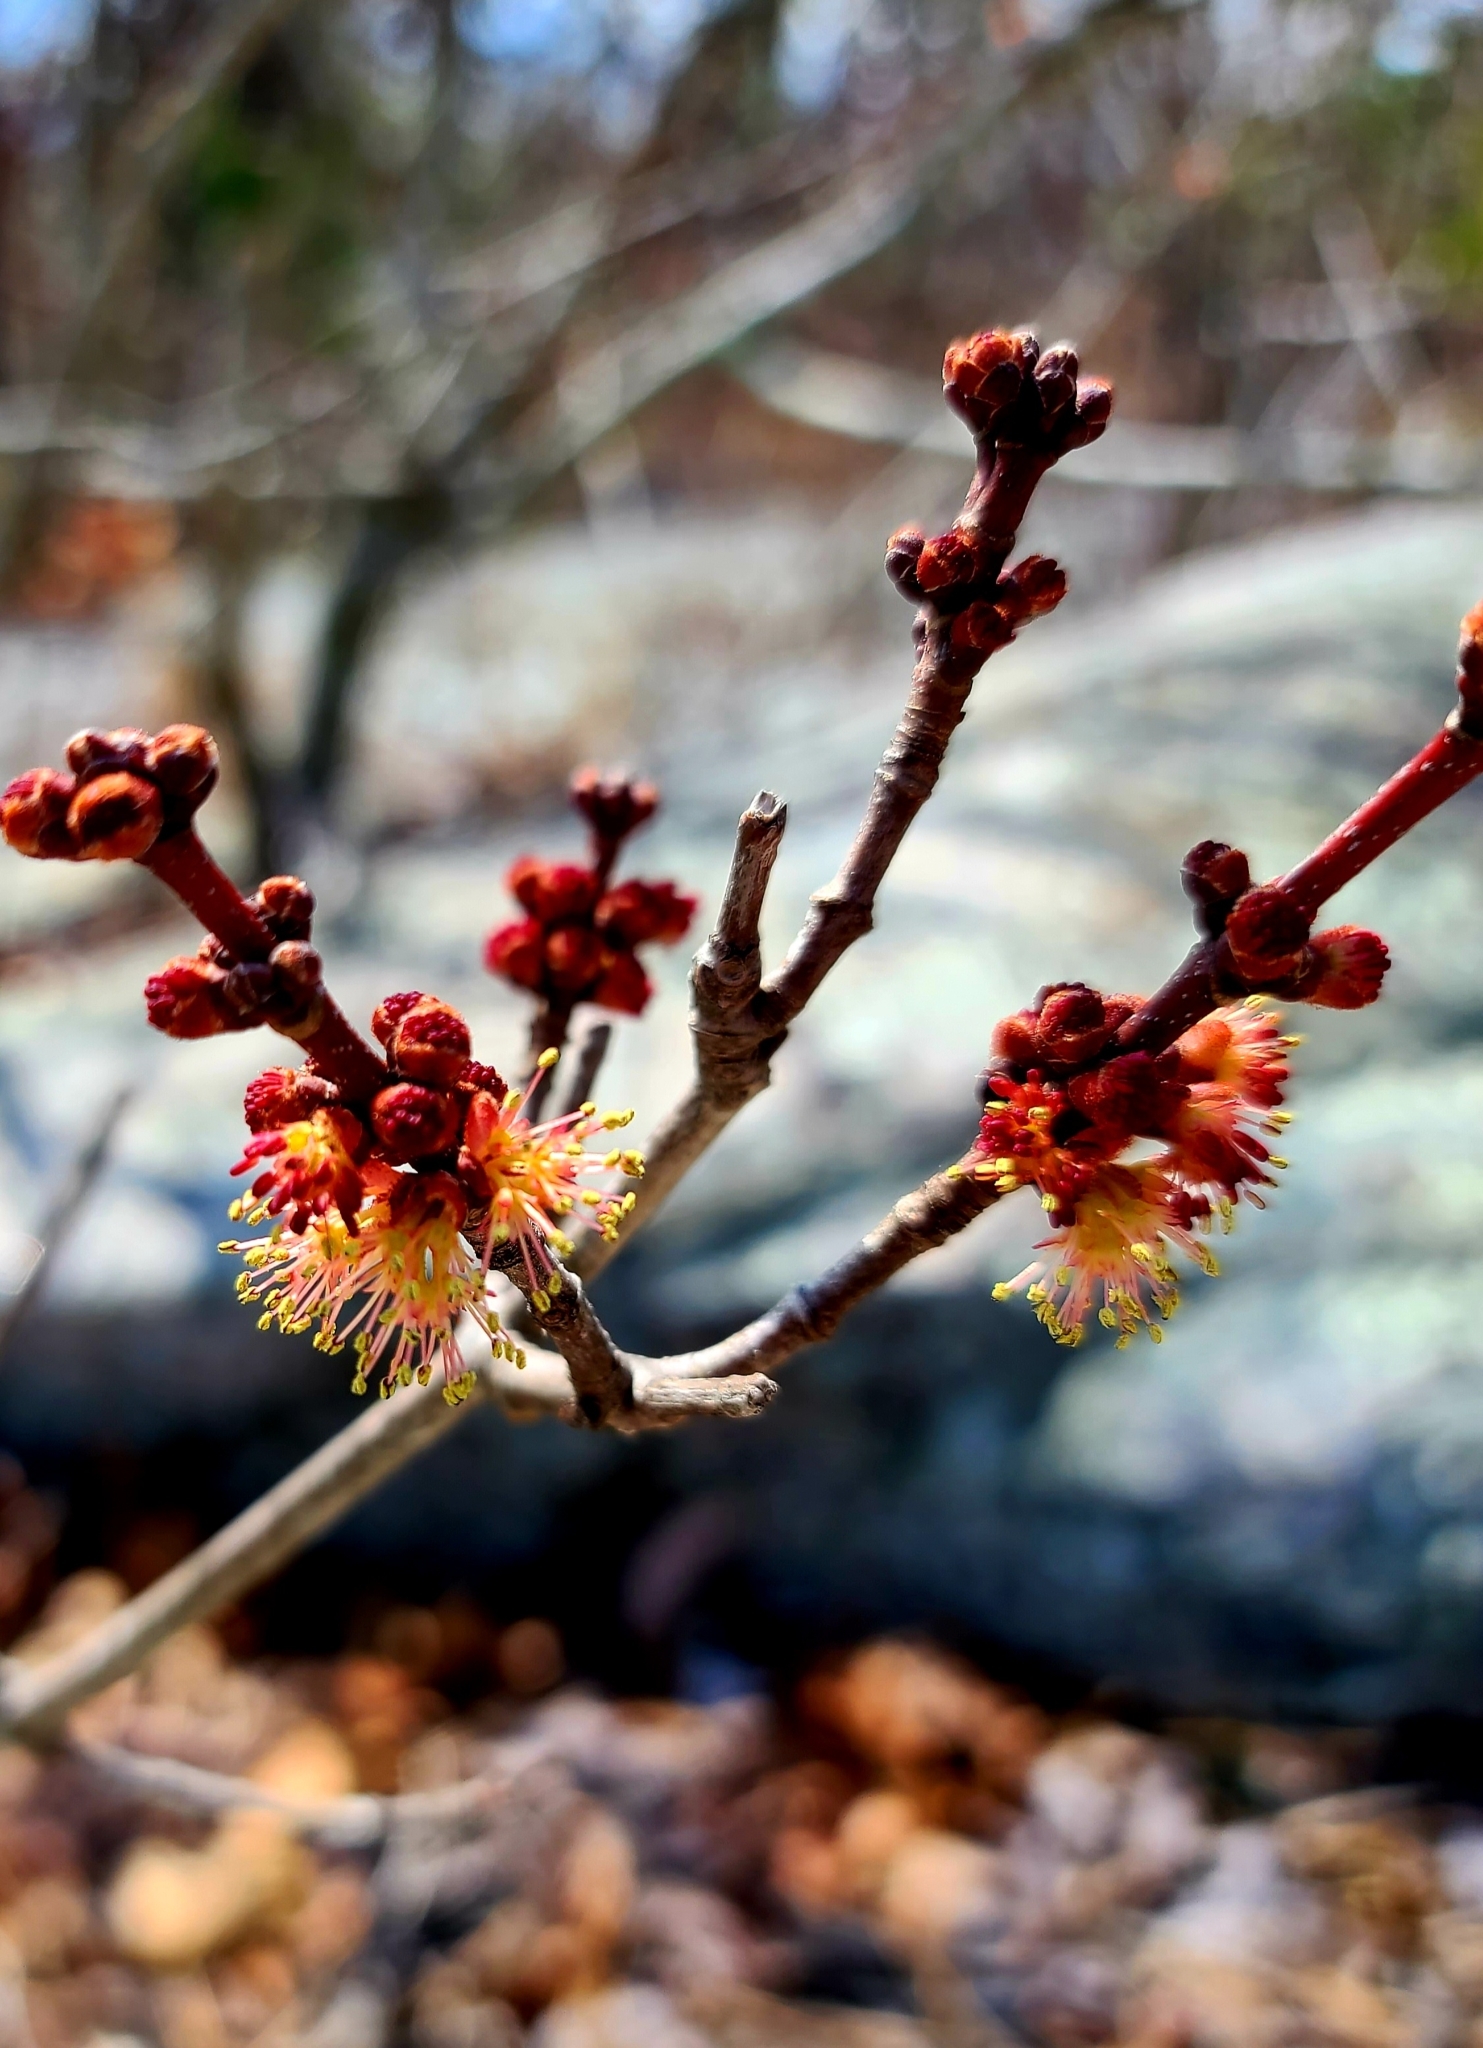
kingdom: Plantae
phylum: Tracheophyta
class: Magnoliopsida
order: Sapindales
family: Sapindaceae
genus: Acer
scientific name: Acer rubrum
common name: Red maple
